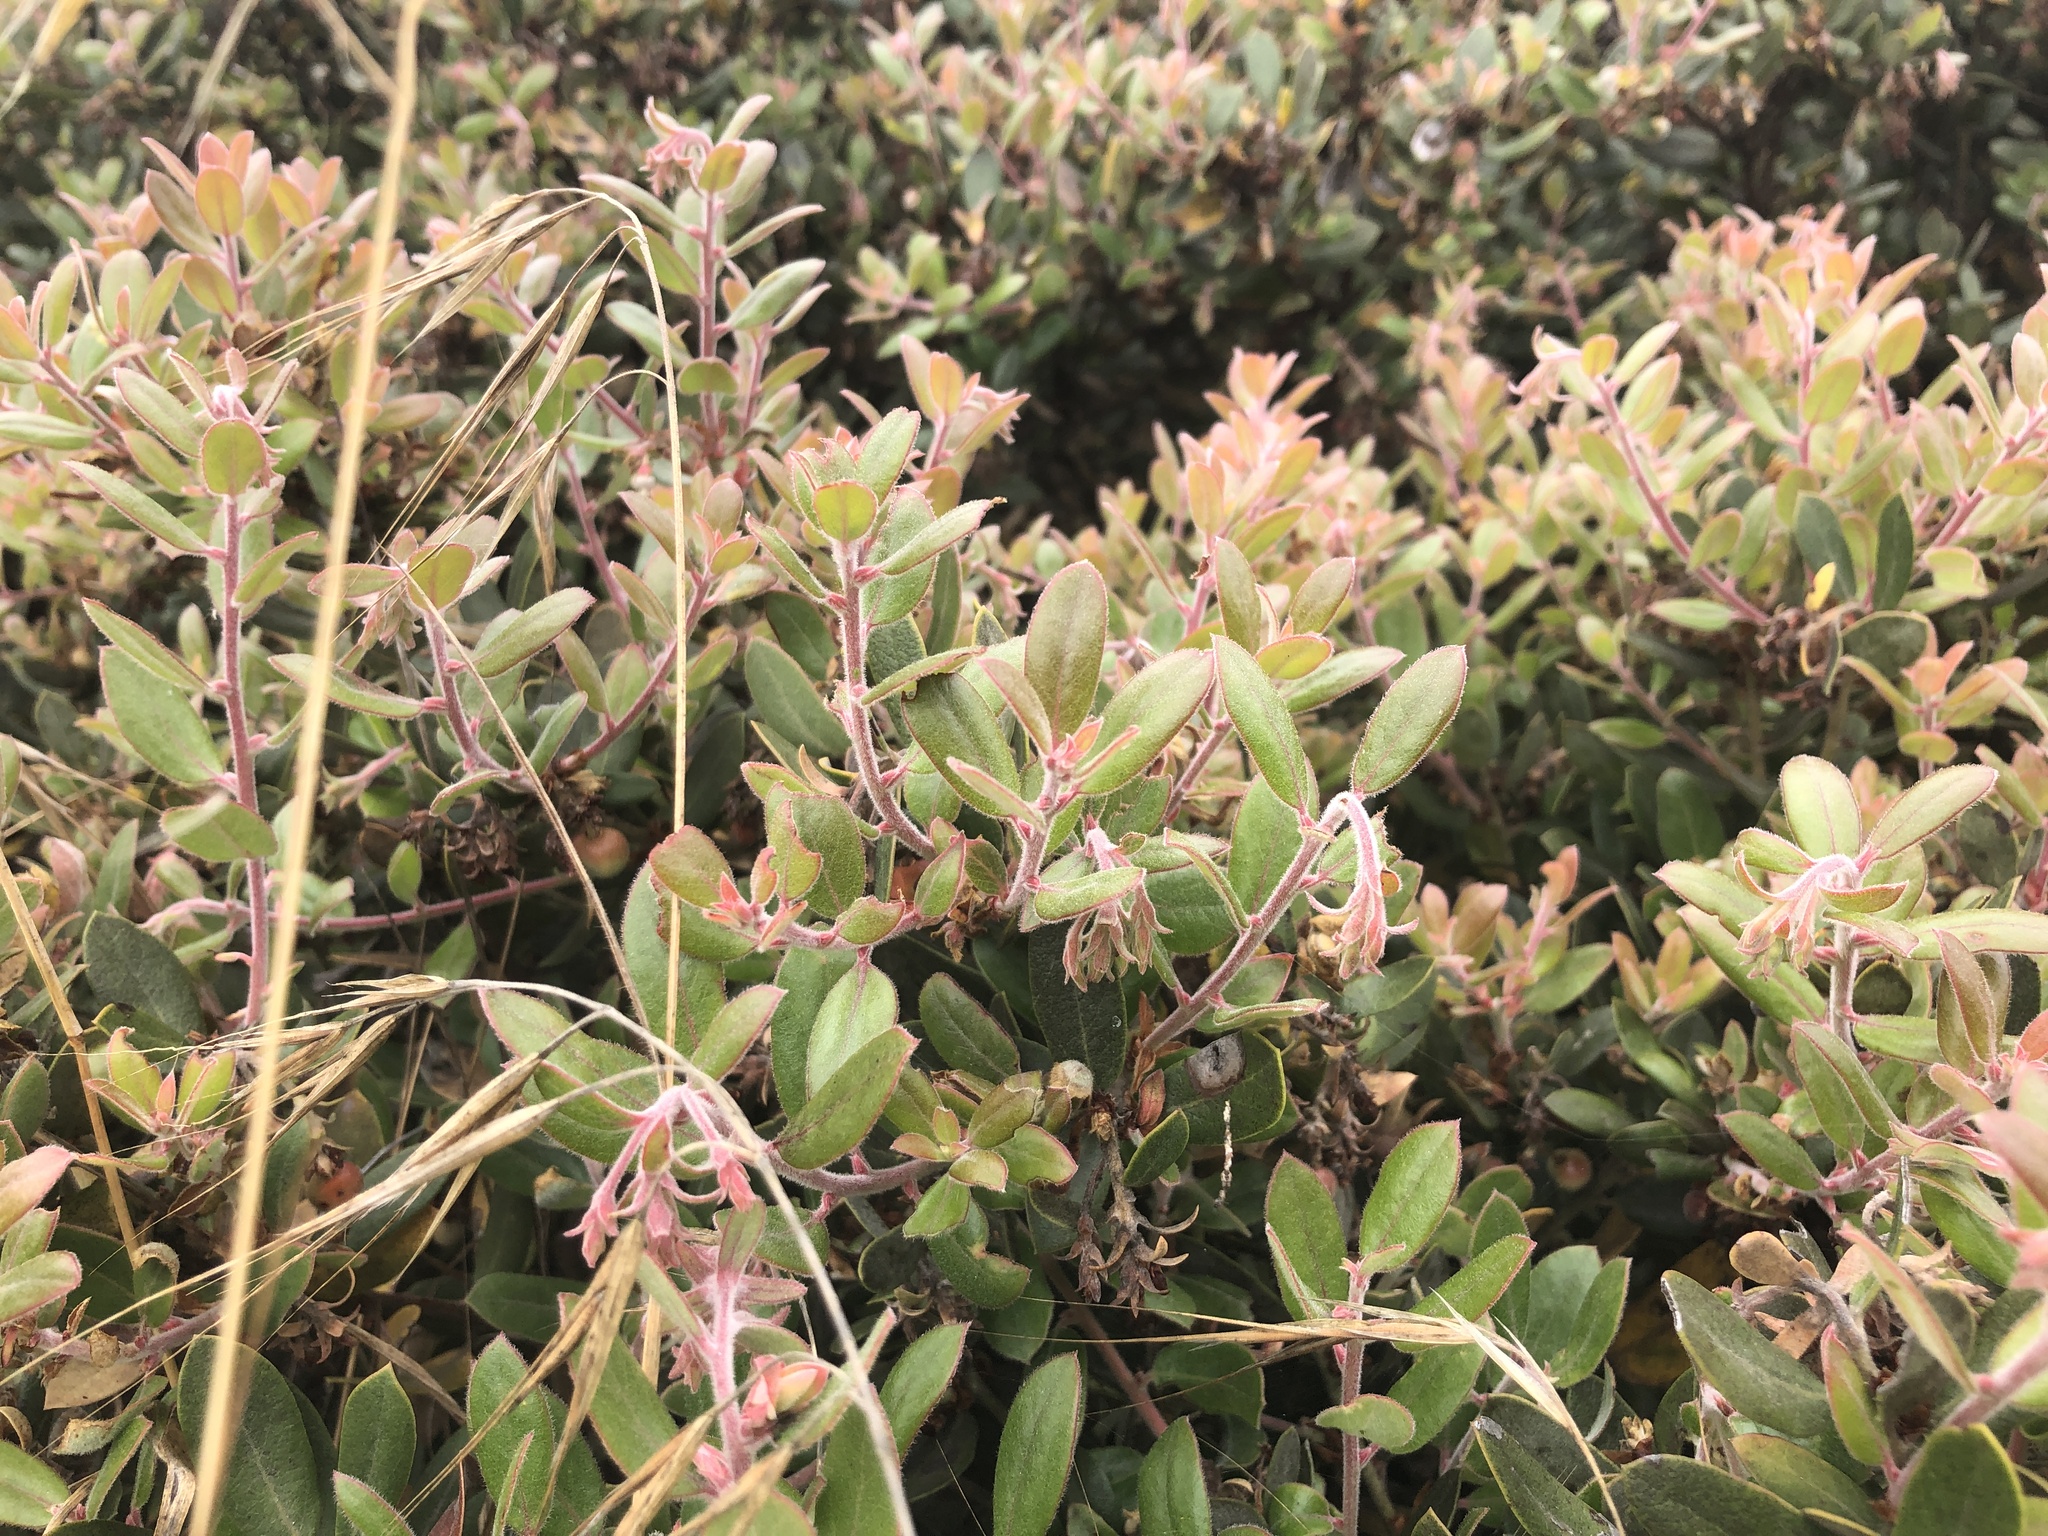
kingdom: Plantae
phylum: Tracheophyta
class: Magnoliopsida
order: Ericales
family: Ericaceae
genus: Arctostaphylos
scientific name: Arctostaphylos tomentosa
